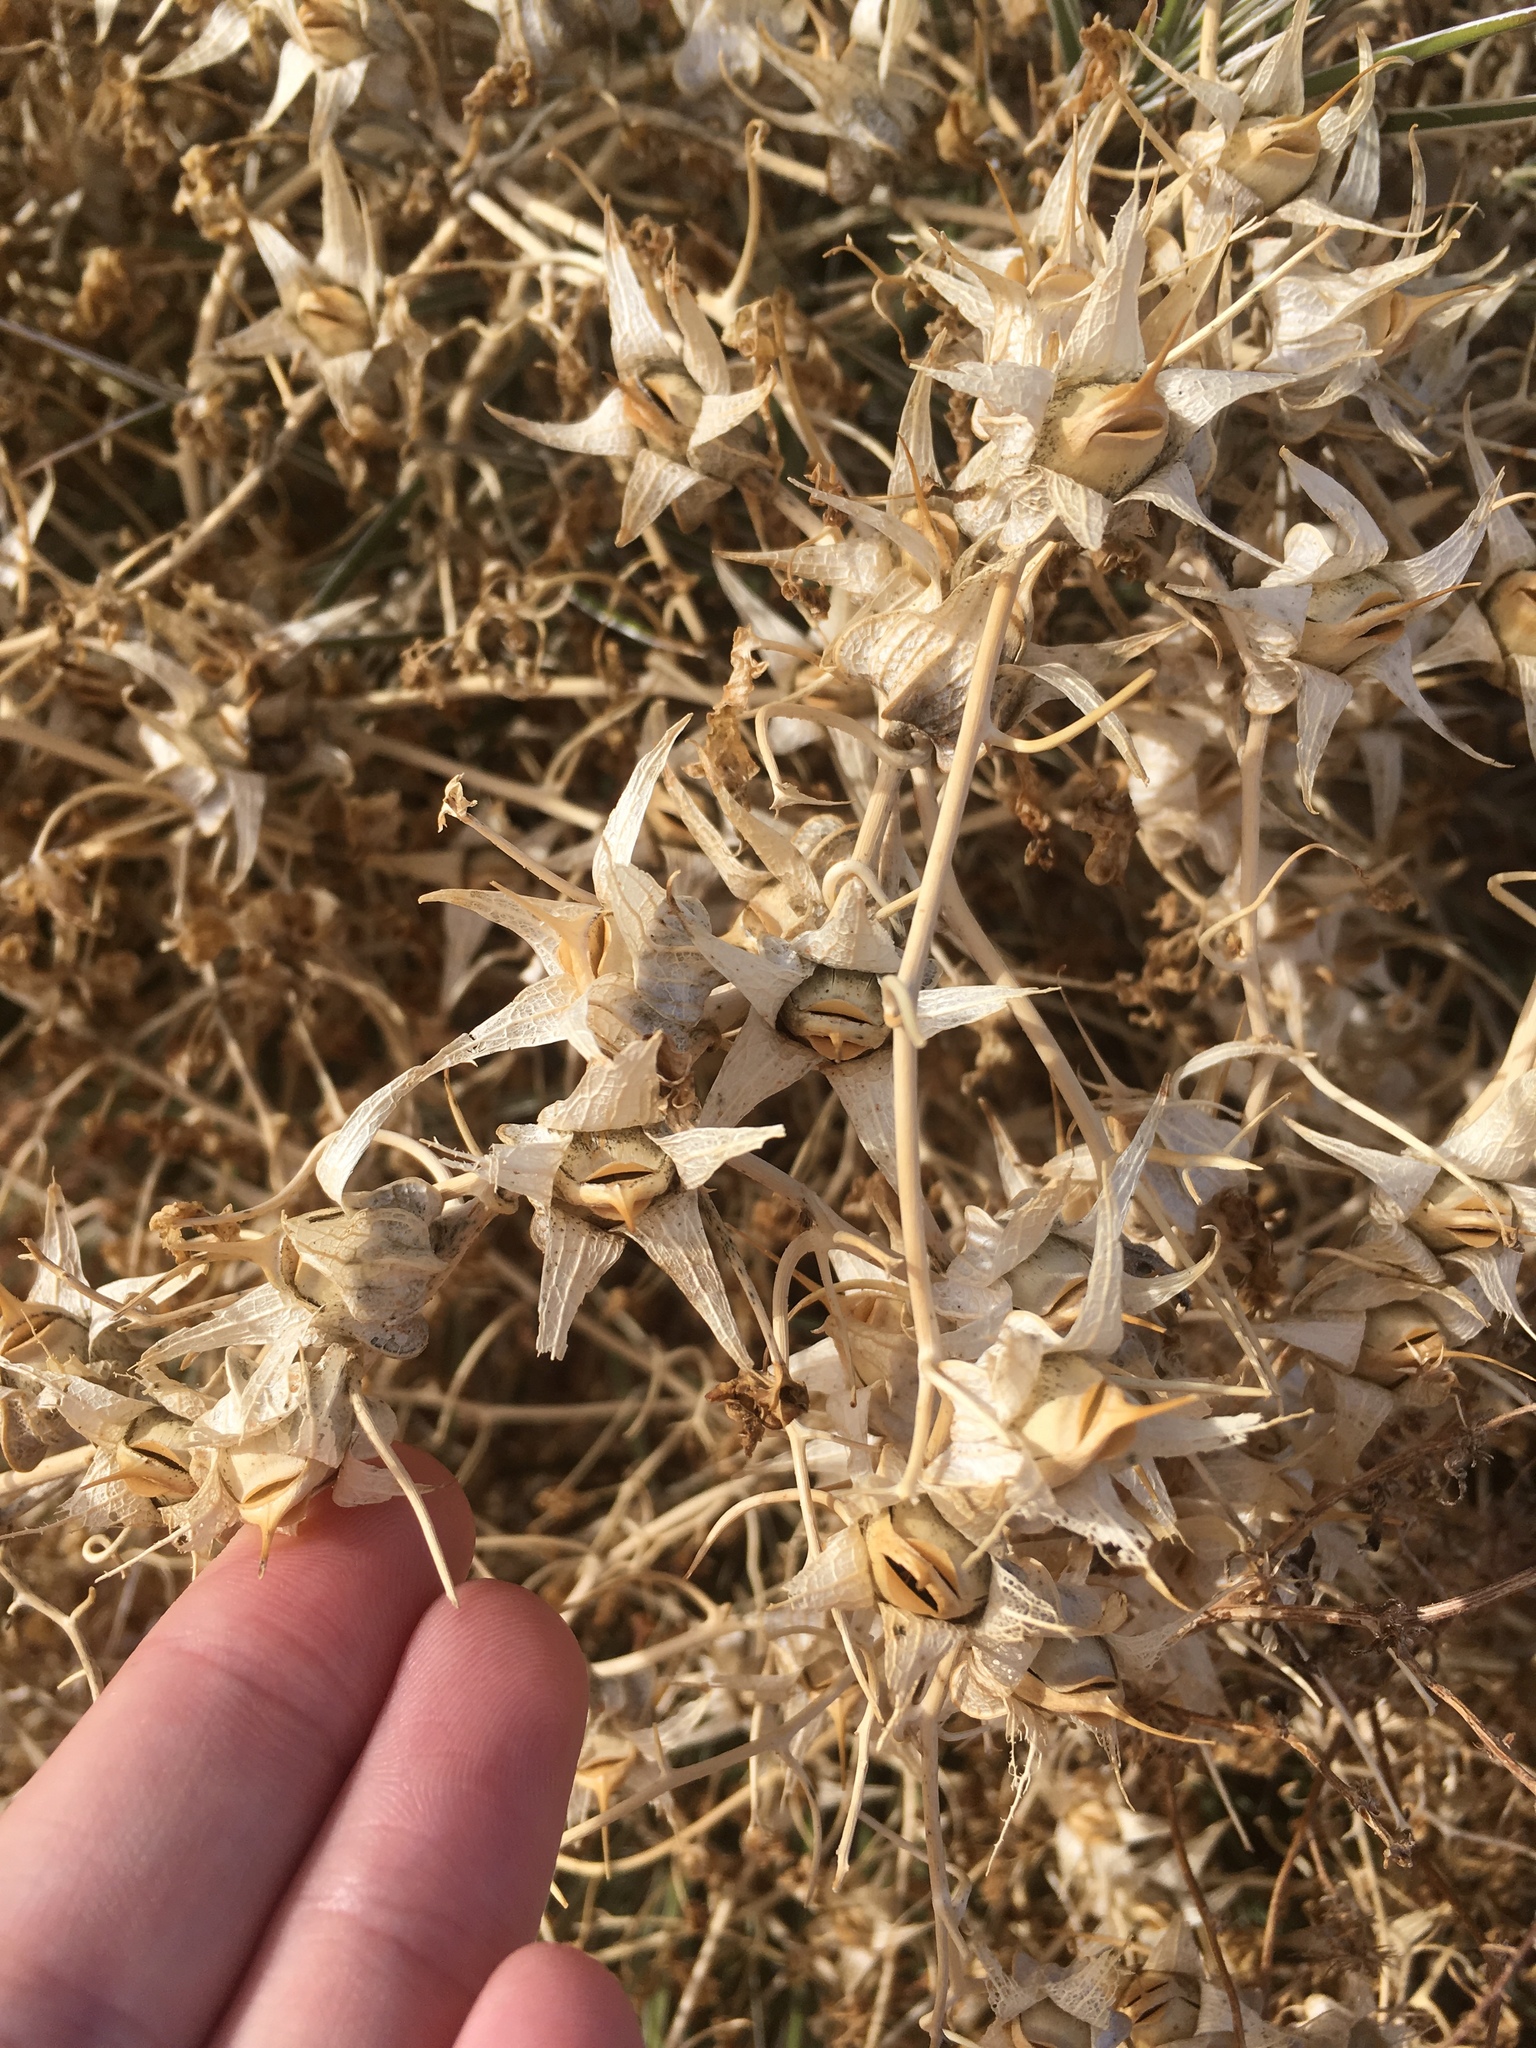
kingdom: Plantae
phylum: Tracheophyta
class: Magnoliopsida
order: Lamiales
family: Plantaginaceae
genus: Epixiphium
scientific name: Epixiphium wislizeni
